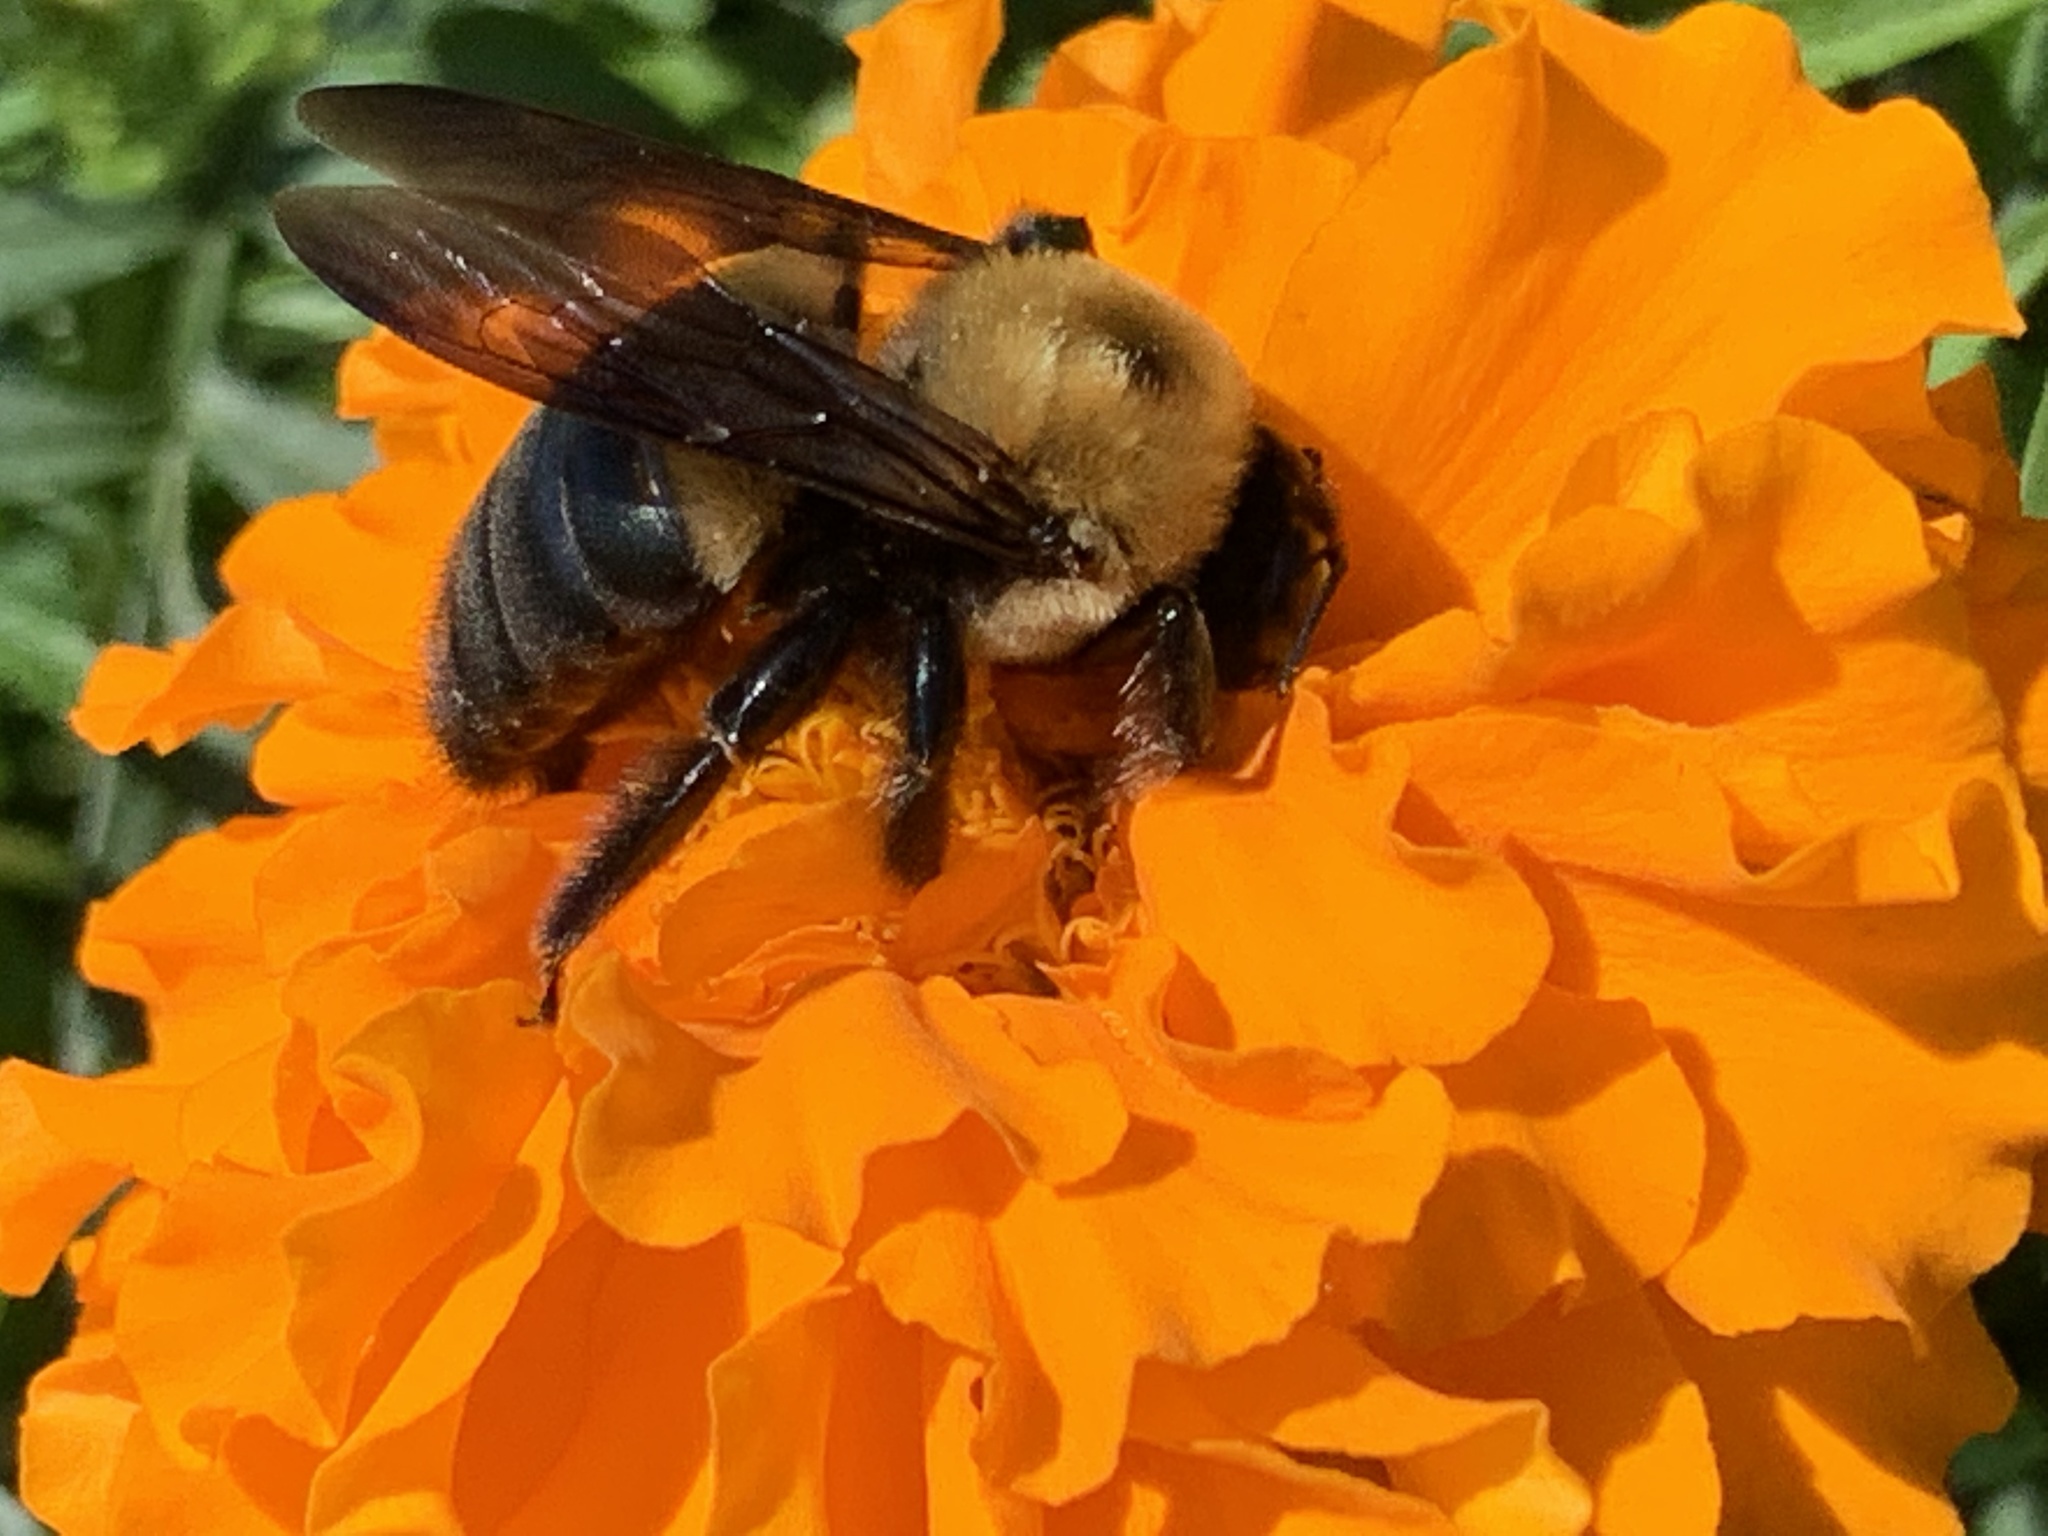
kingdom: Animalia
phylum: Arthropoda
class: Insecta
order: Hymenoptera
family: Apidae
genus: Xylocopa
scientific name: Xylocopa virginica
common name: Carpenter bee
